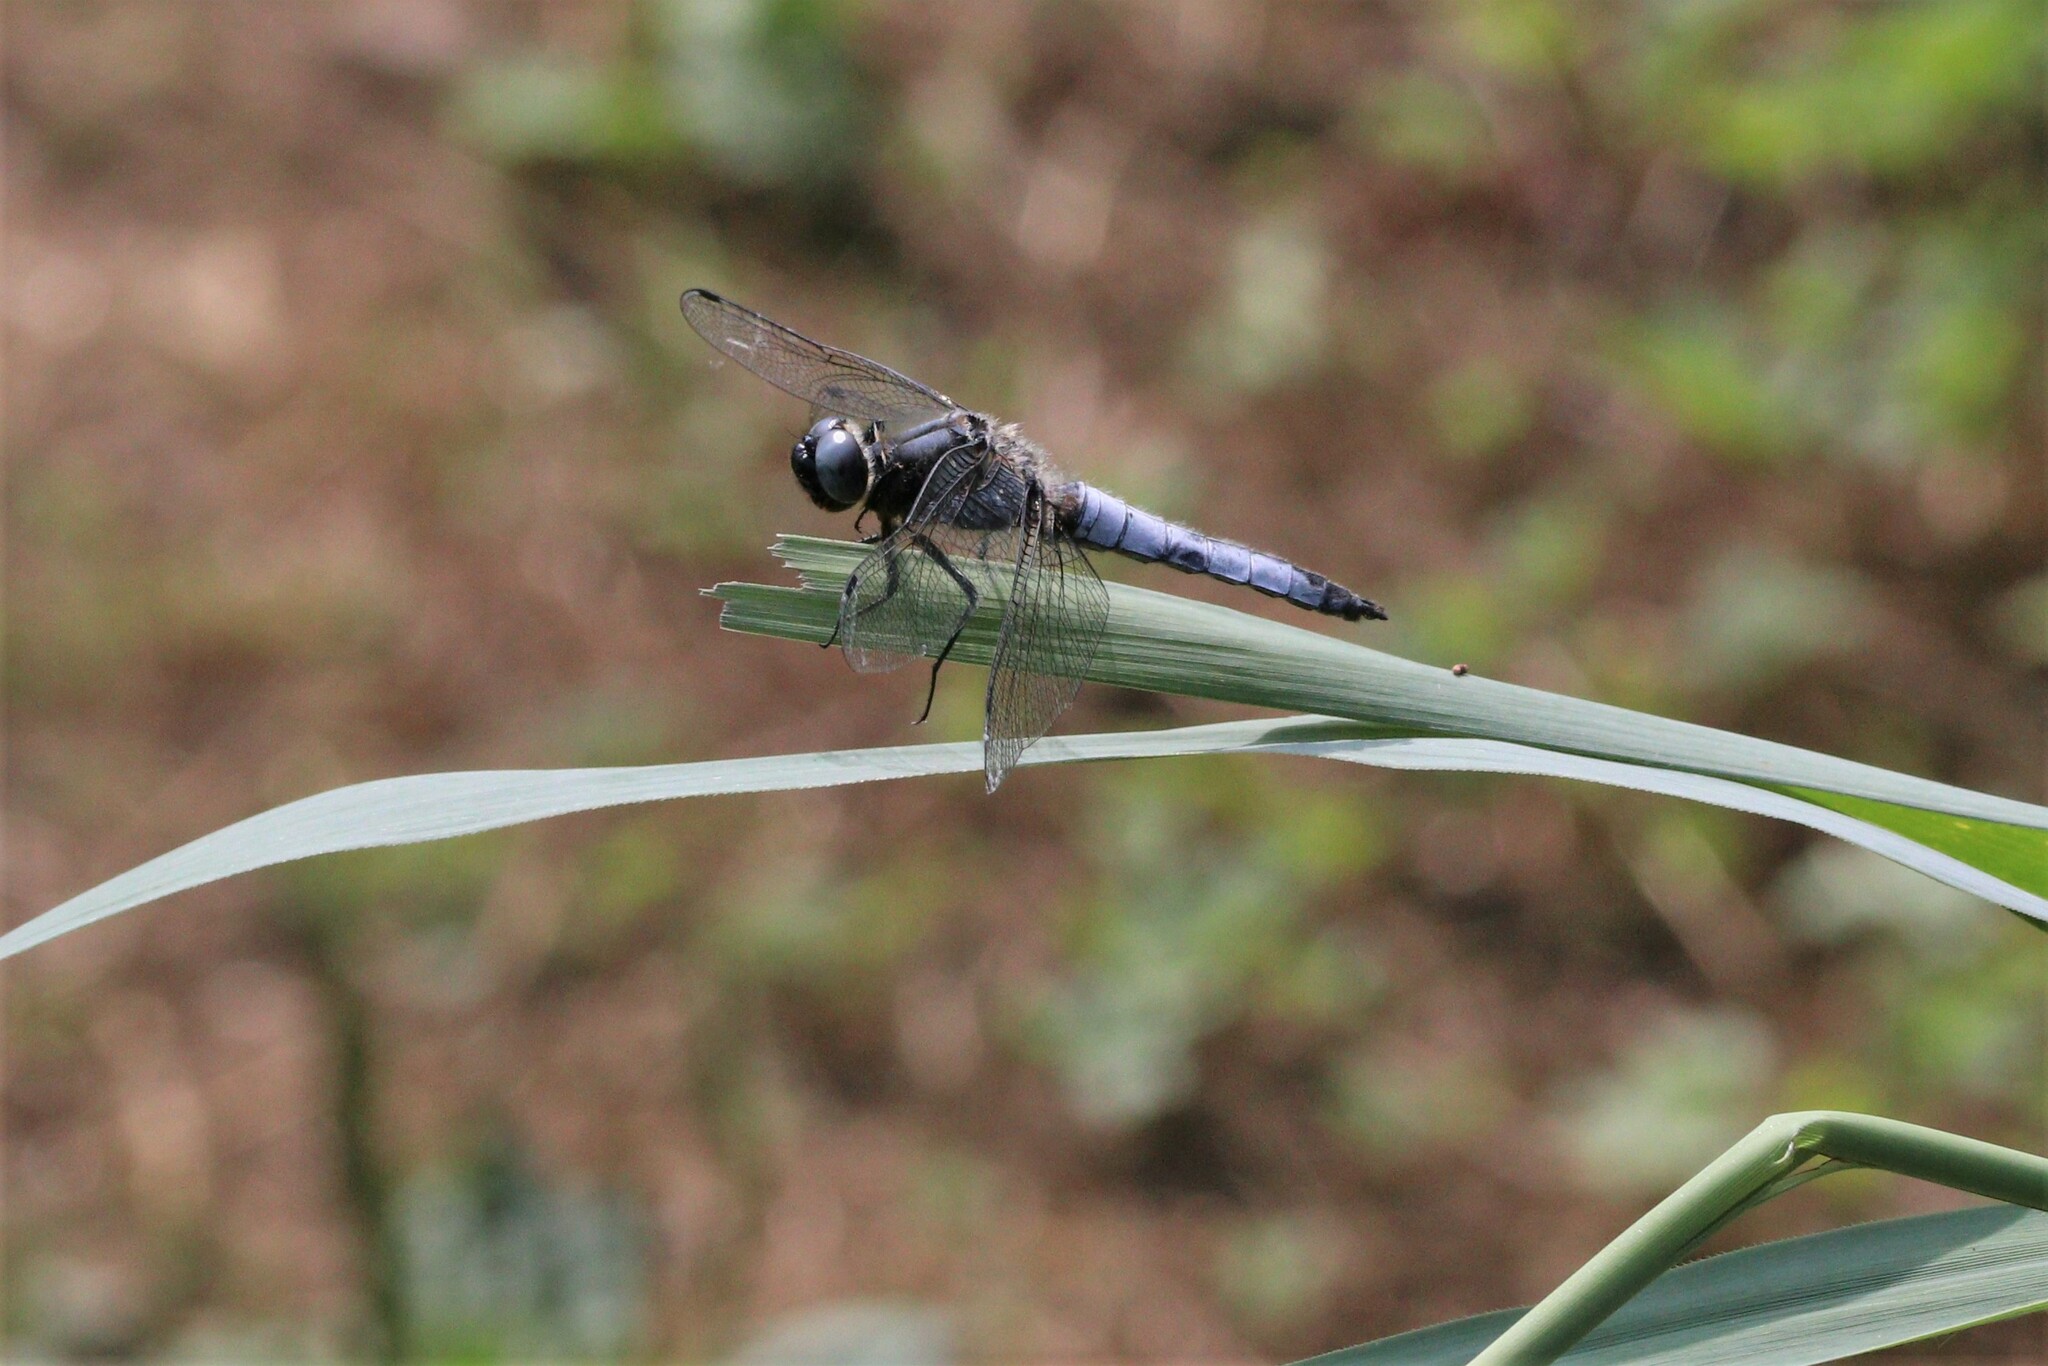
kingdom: Animalia
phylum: Arthropoda
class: Insecta
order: Odonata
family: Libellulidae
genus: Libellula
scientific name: Libellula fulva
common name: Blue chaser
